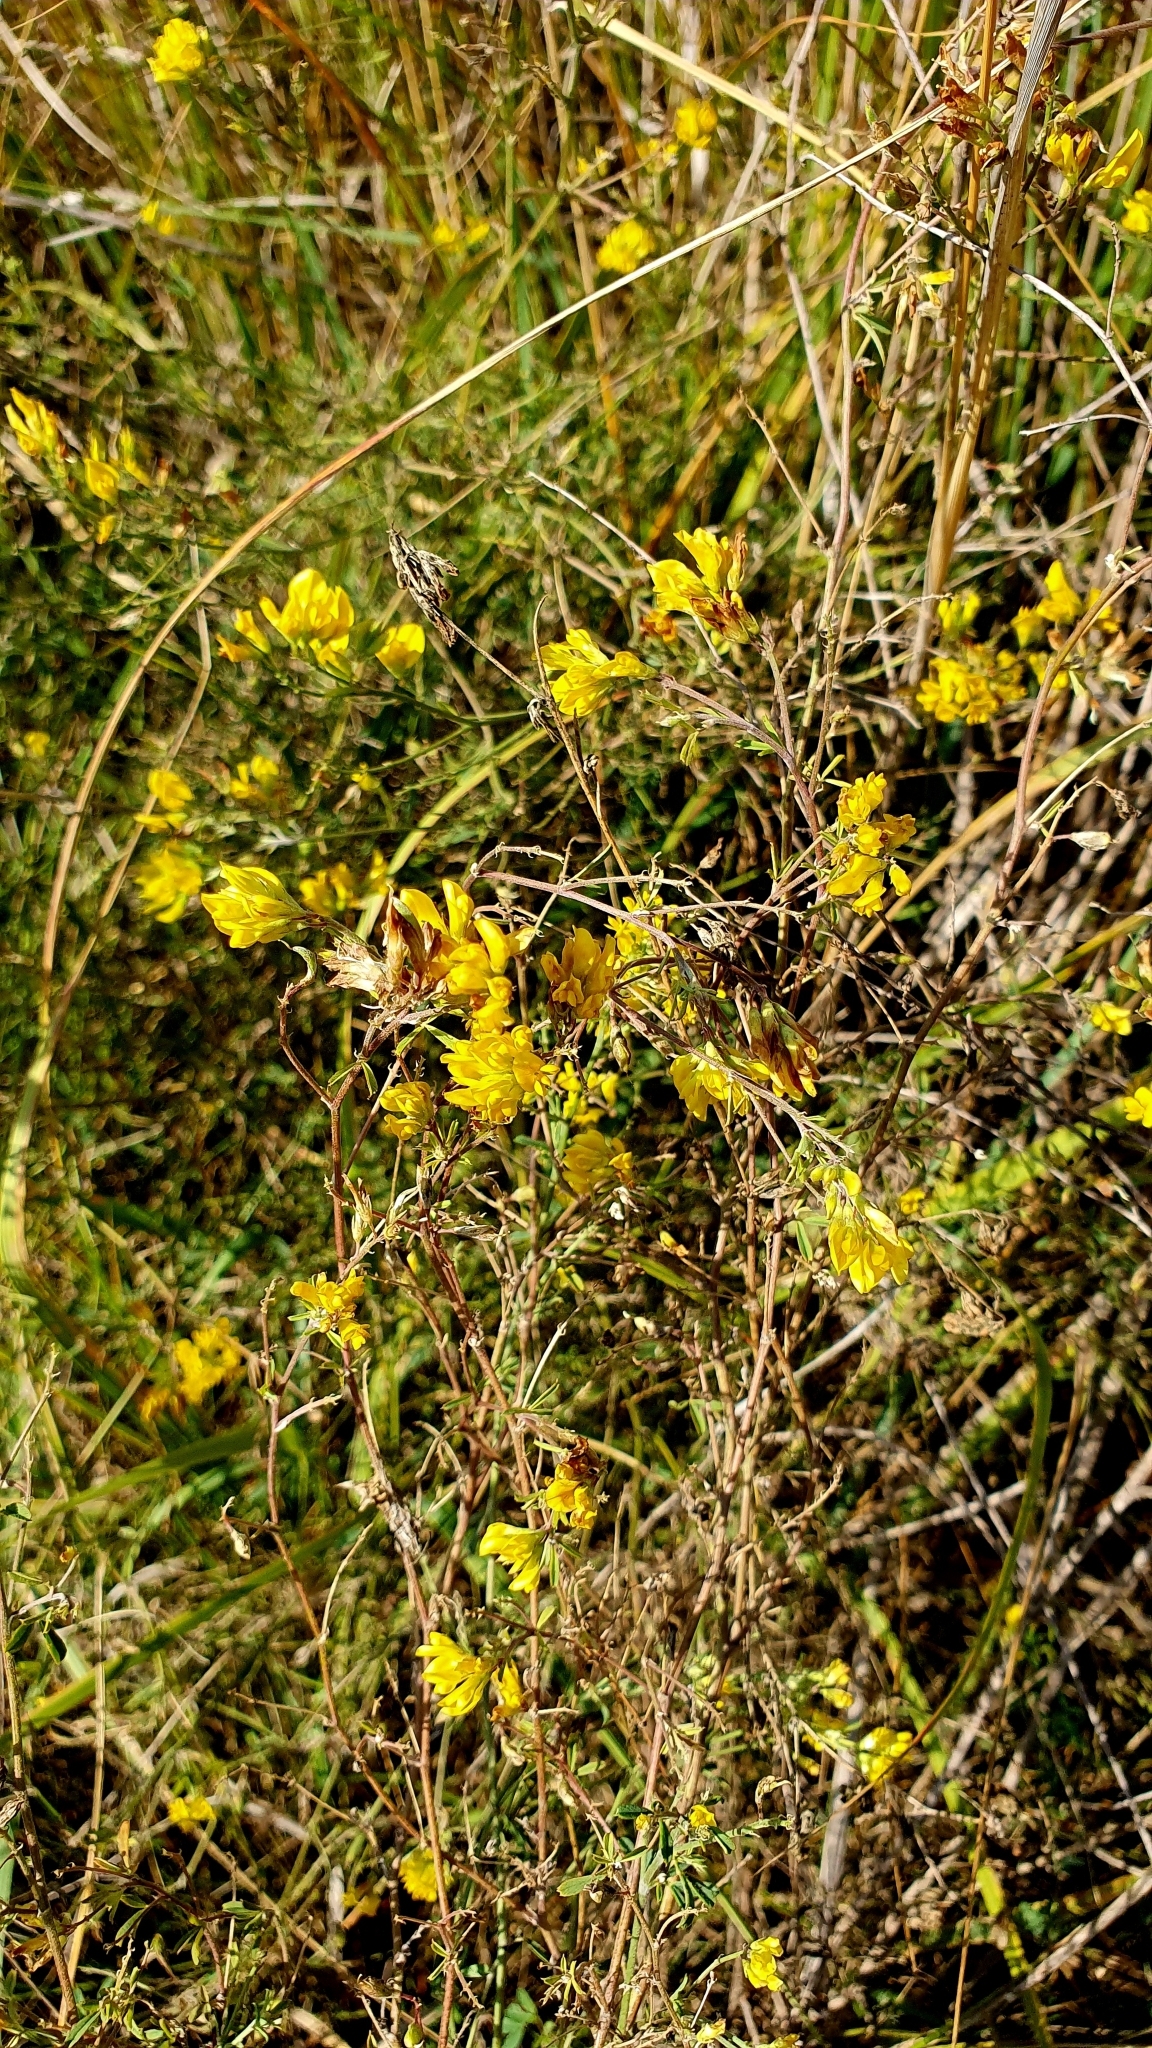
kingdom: Plantae
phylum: Tracheophyta
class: Magnoliopsida
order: Fabales
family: Fabaceae
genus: Medicago
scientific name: Medicago falcata
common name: Sickle medick
